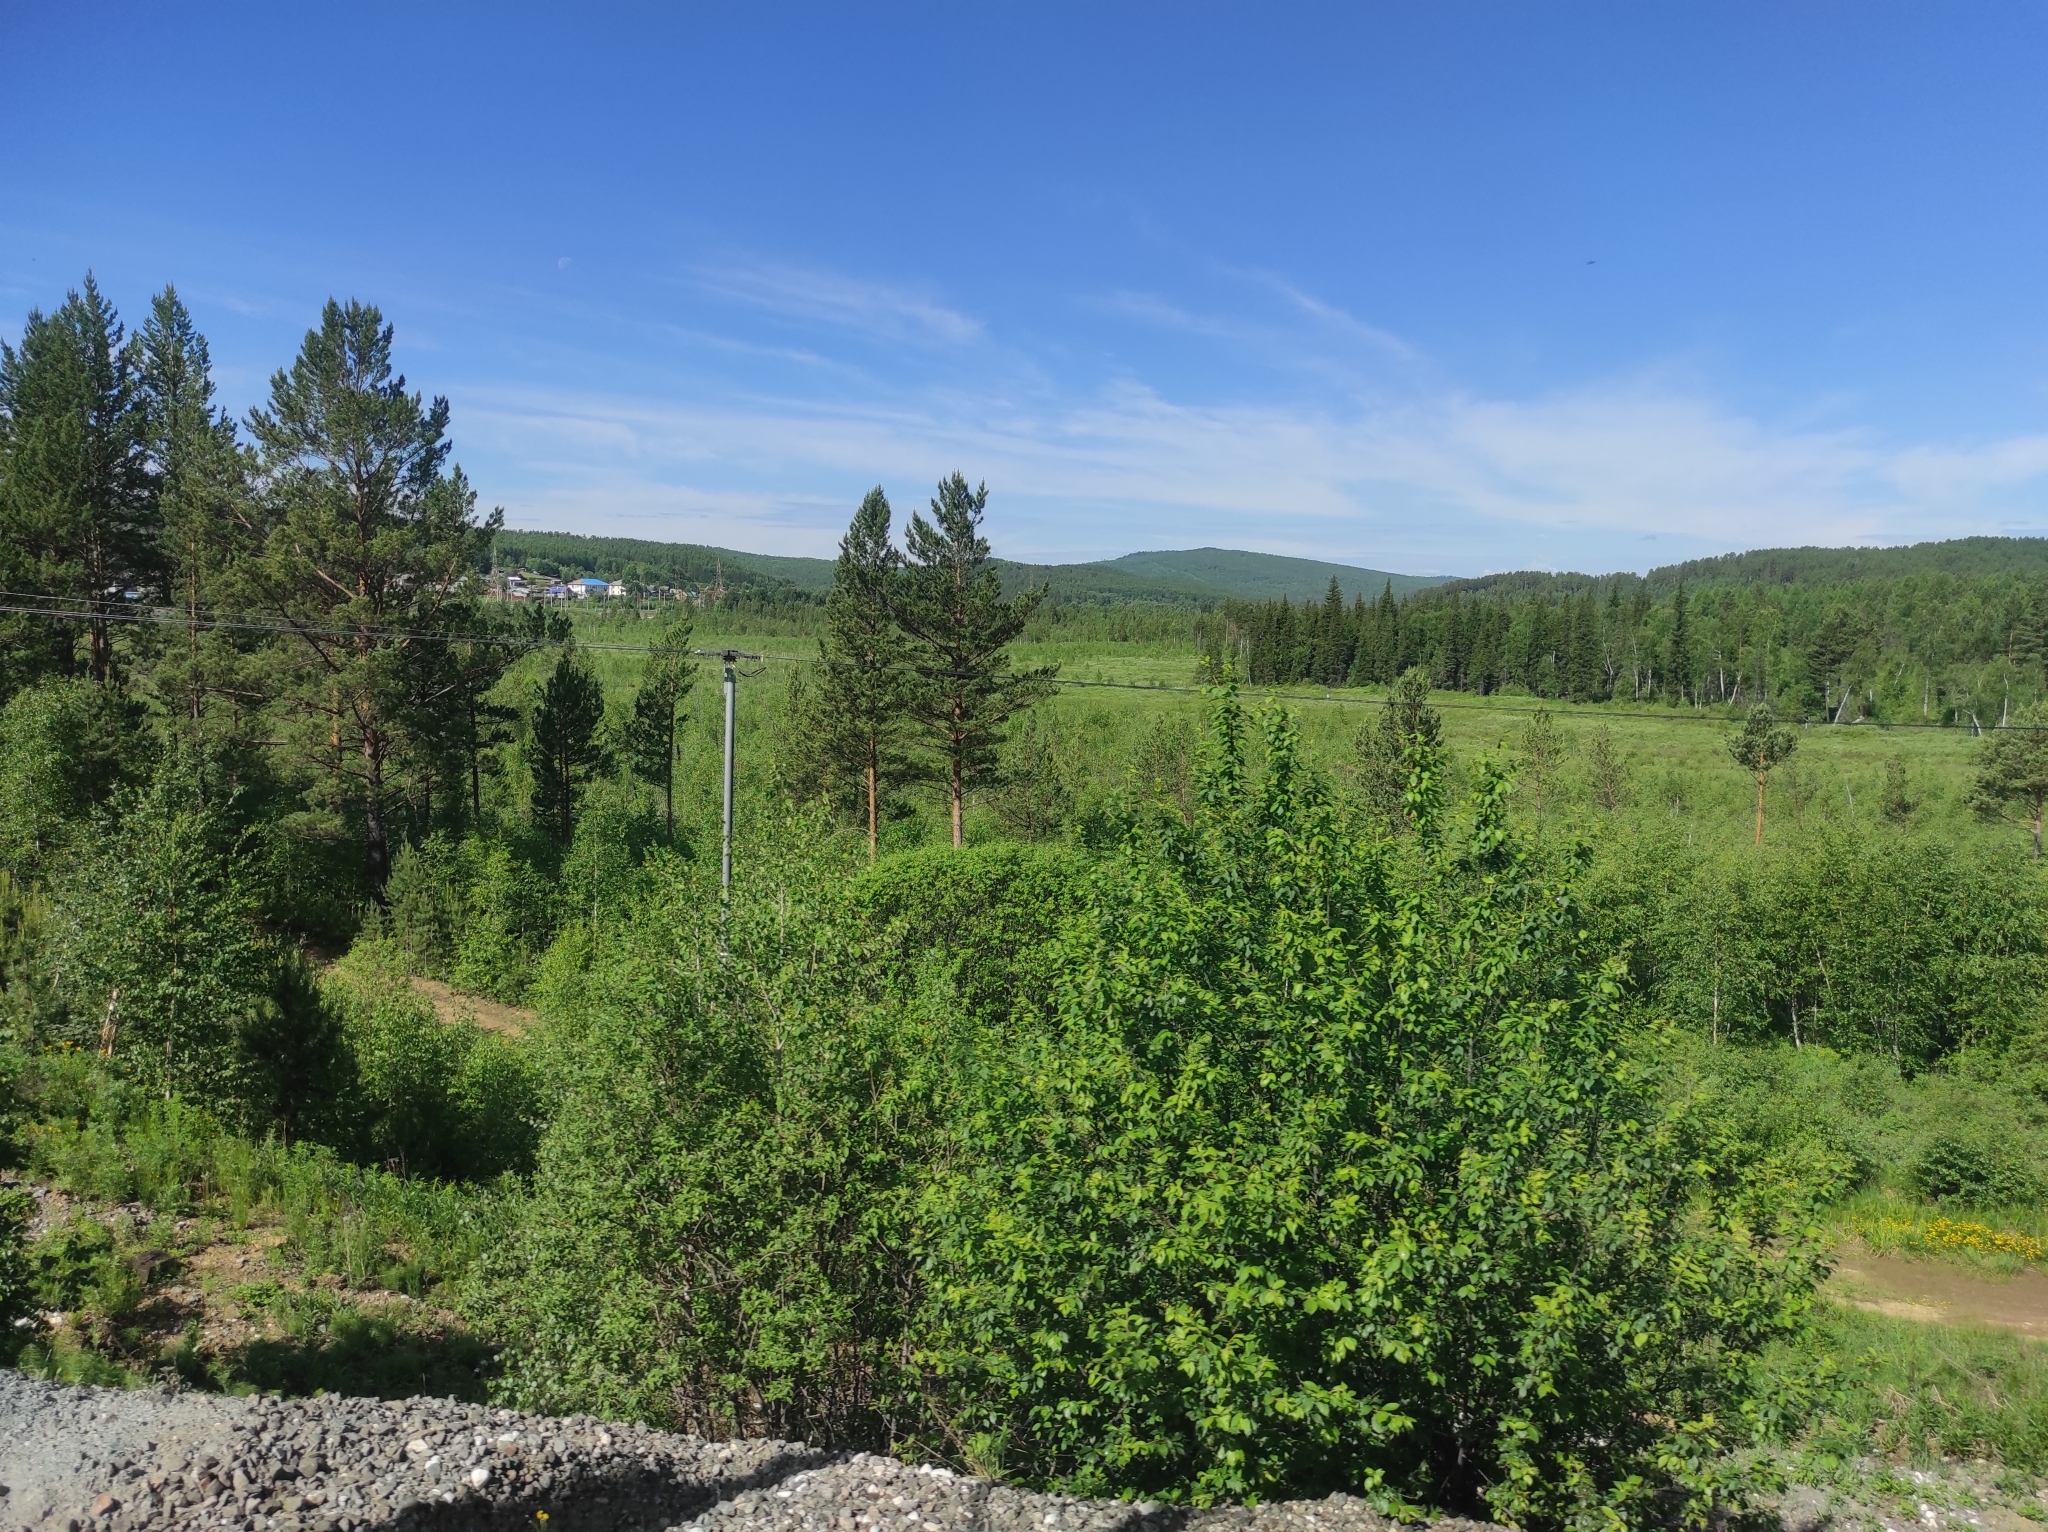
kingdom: Plantae
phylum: Tracheophyta
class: Pinopsida
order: Pinales
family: Pinaceae
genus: Picea
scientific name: Picea obovata
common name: Siberian spruce
